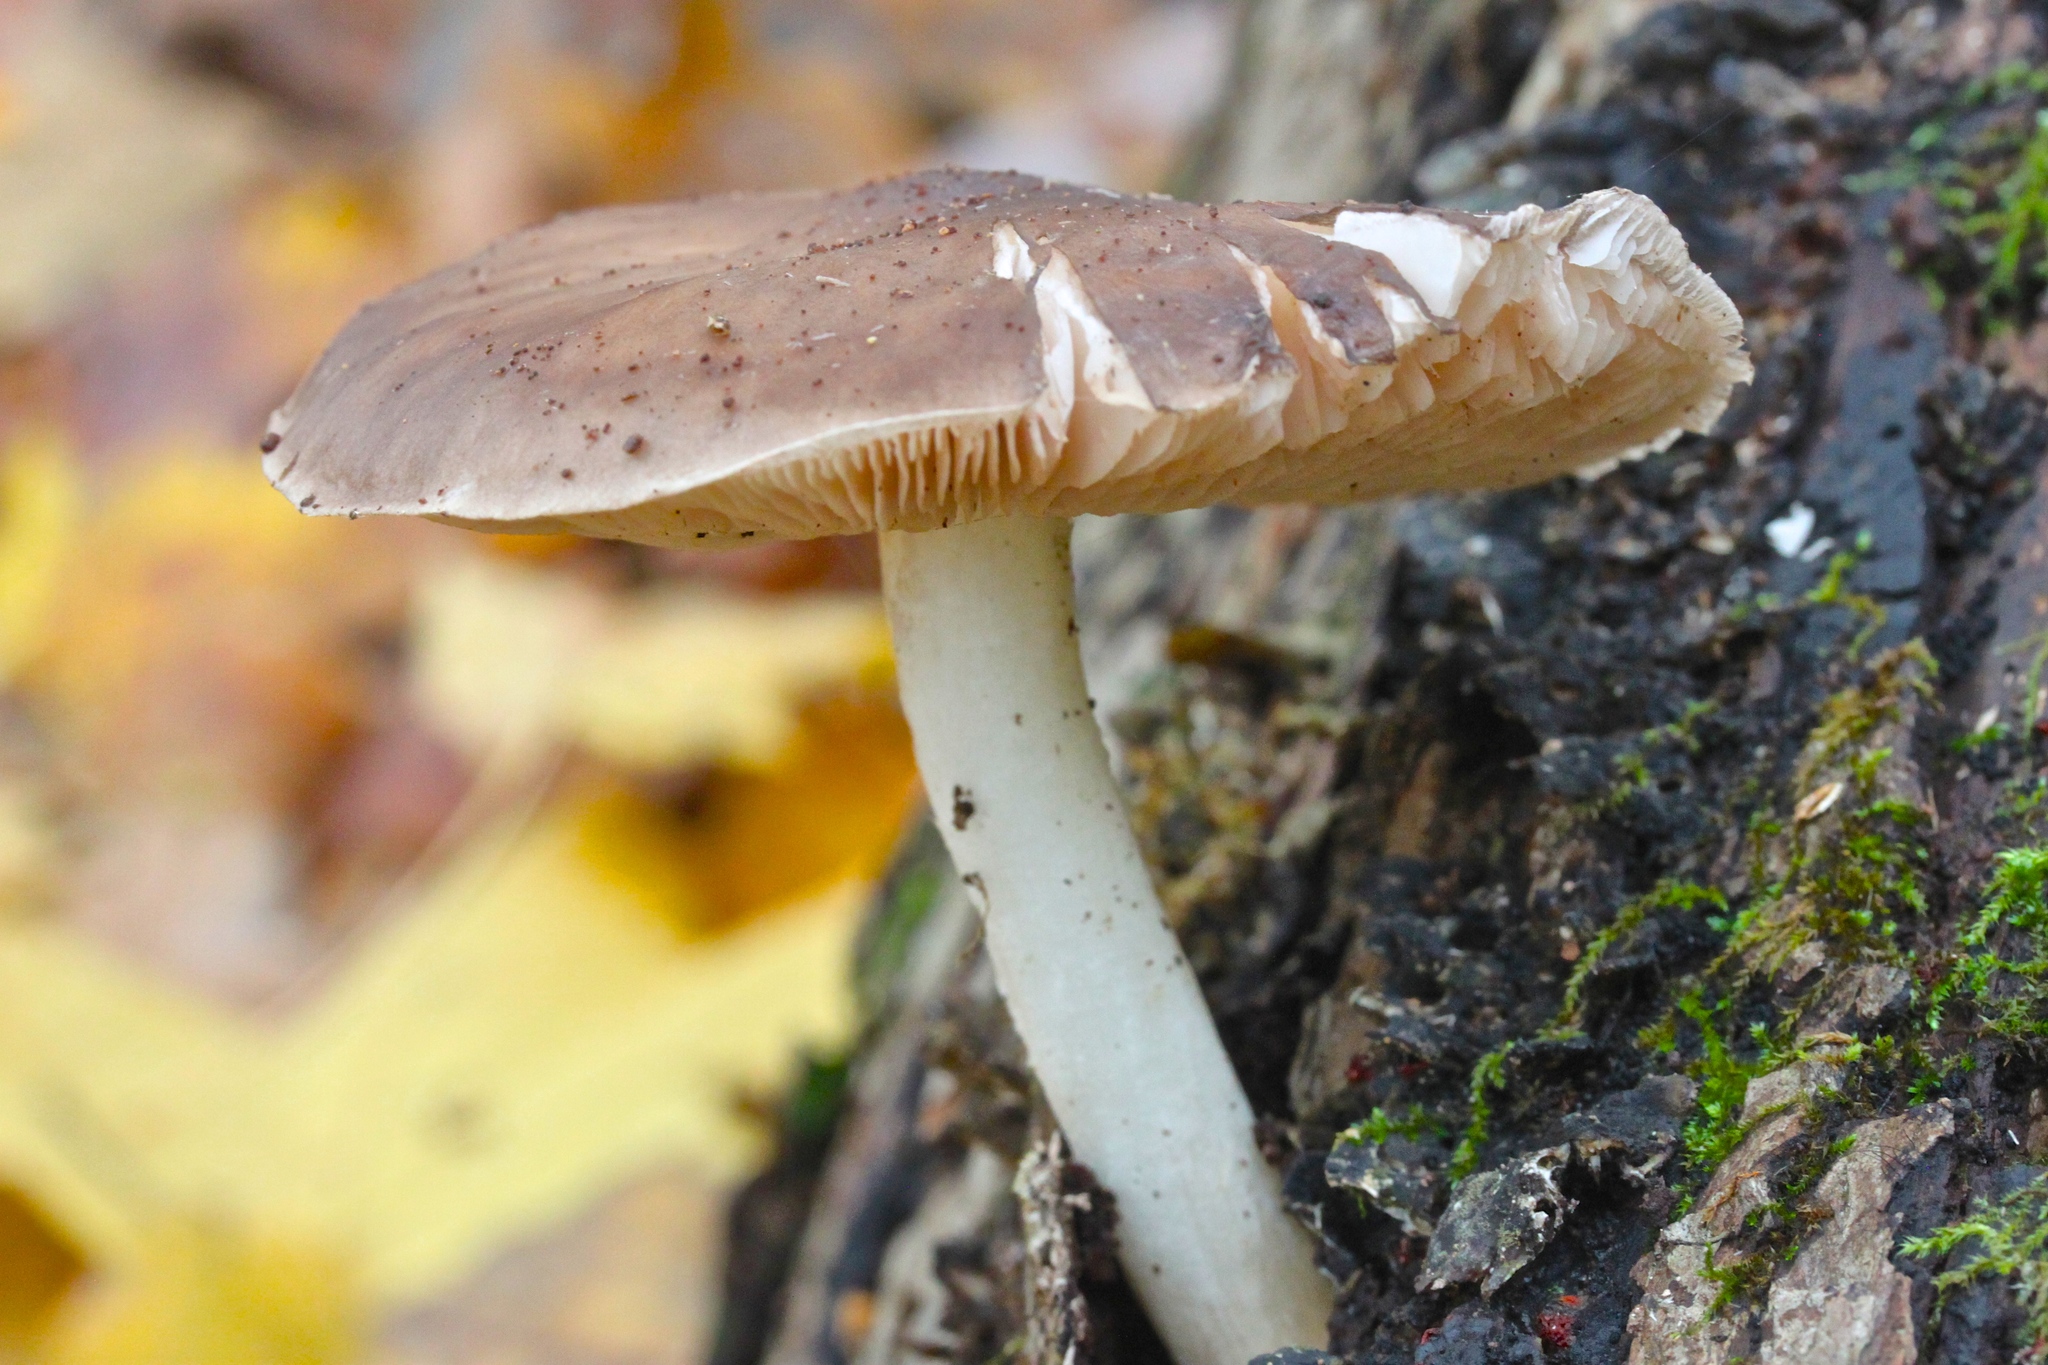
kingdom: Fungi
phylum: Basidiomycota
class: Agaricomycetes
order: Agaricales
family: Pluteaceae
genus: Pluteus
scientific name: Pluteus cervinus
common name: Deer shield
